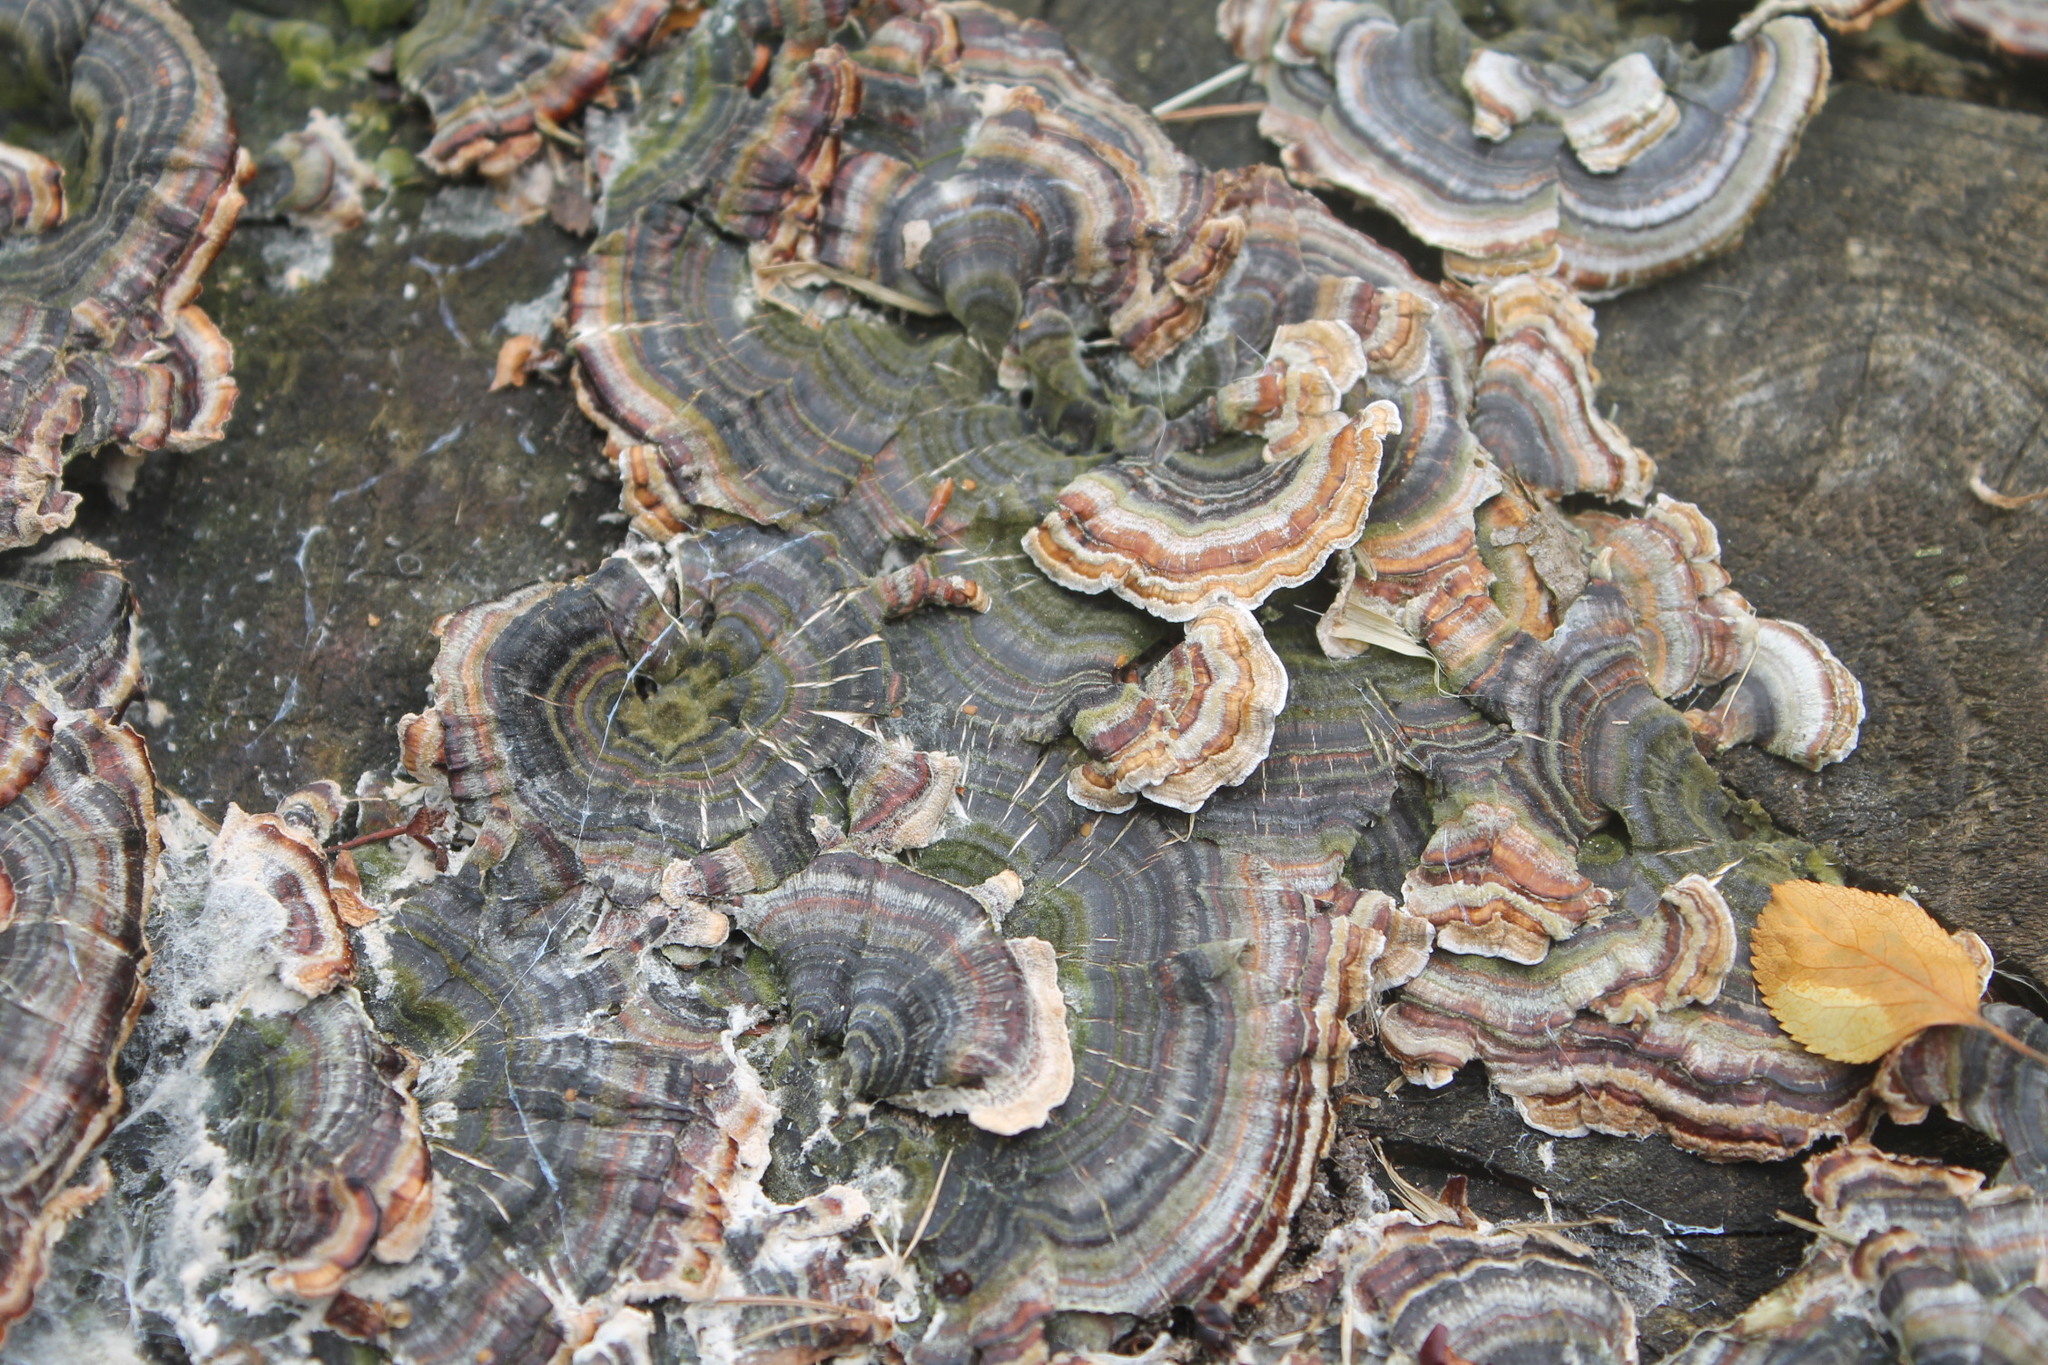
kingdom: Fungi
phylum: Basidiomycota
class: Agaricomycetes
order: Polyporales
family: Polyporaceae
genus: Trametes
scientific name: Trametes versicolor
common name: Turkeytail
